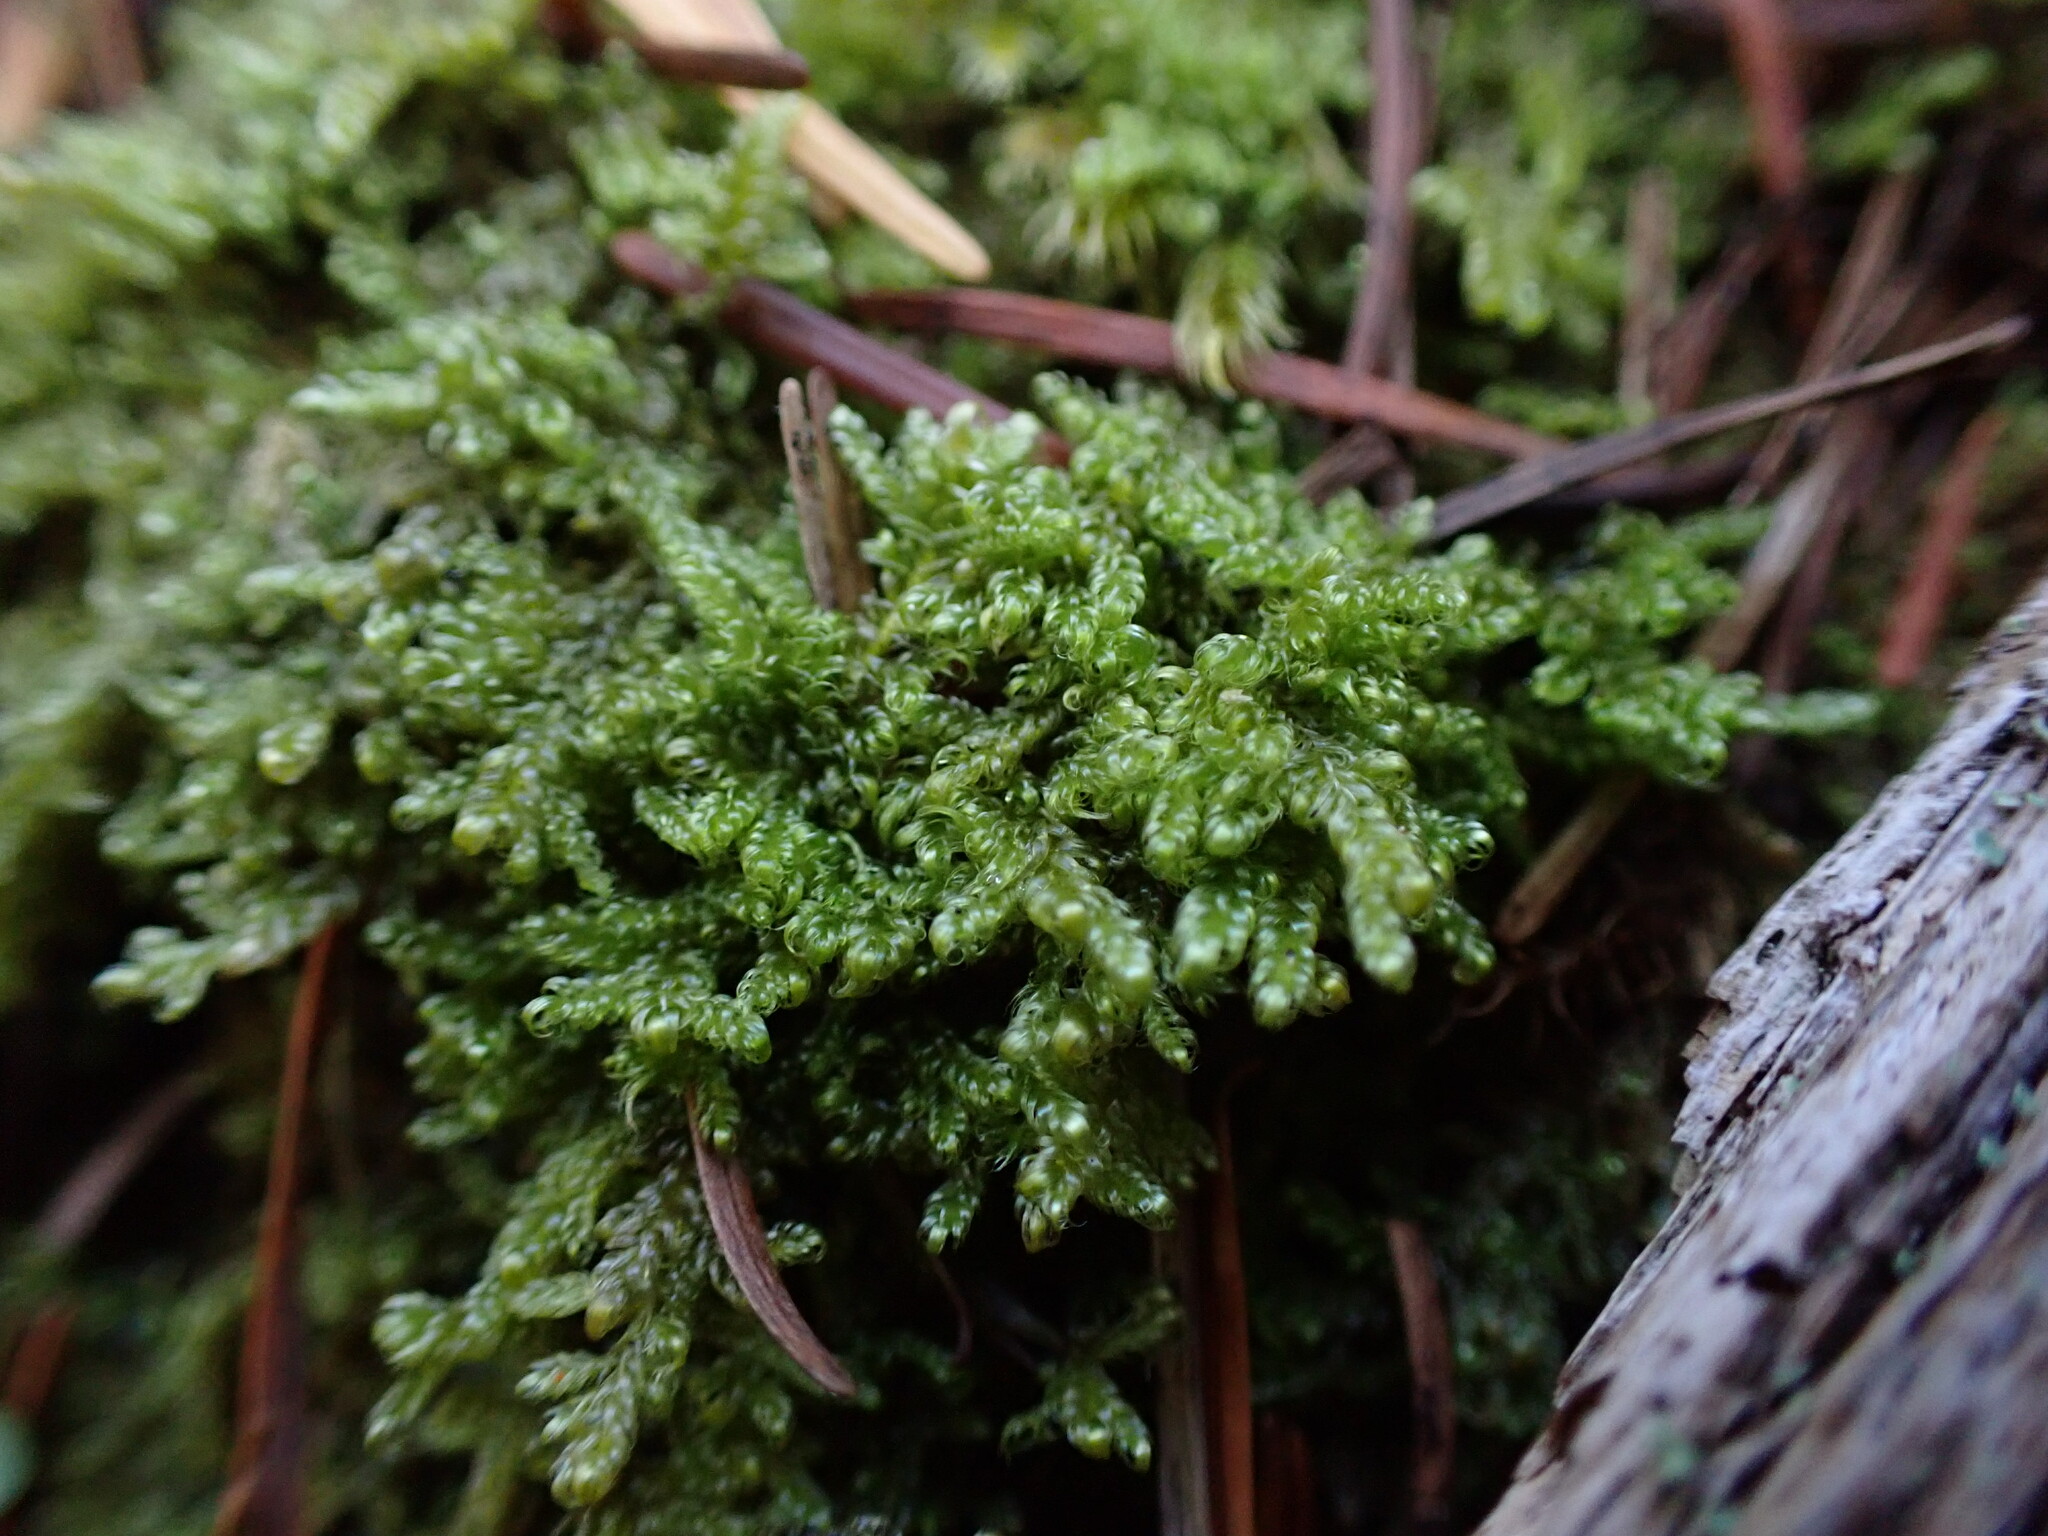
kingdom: Plantae
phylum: Bryophyta
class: Bryopsida
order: Hypnales
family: Stereodontaceae
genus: Stereodon
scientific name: Stereodon subimponens
